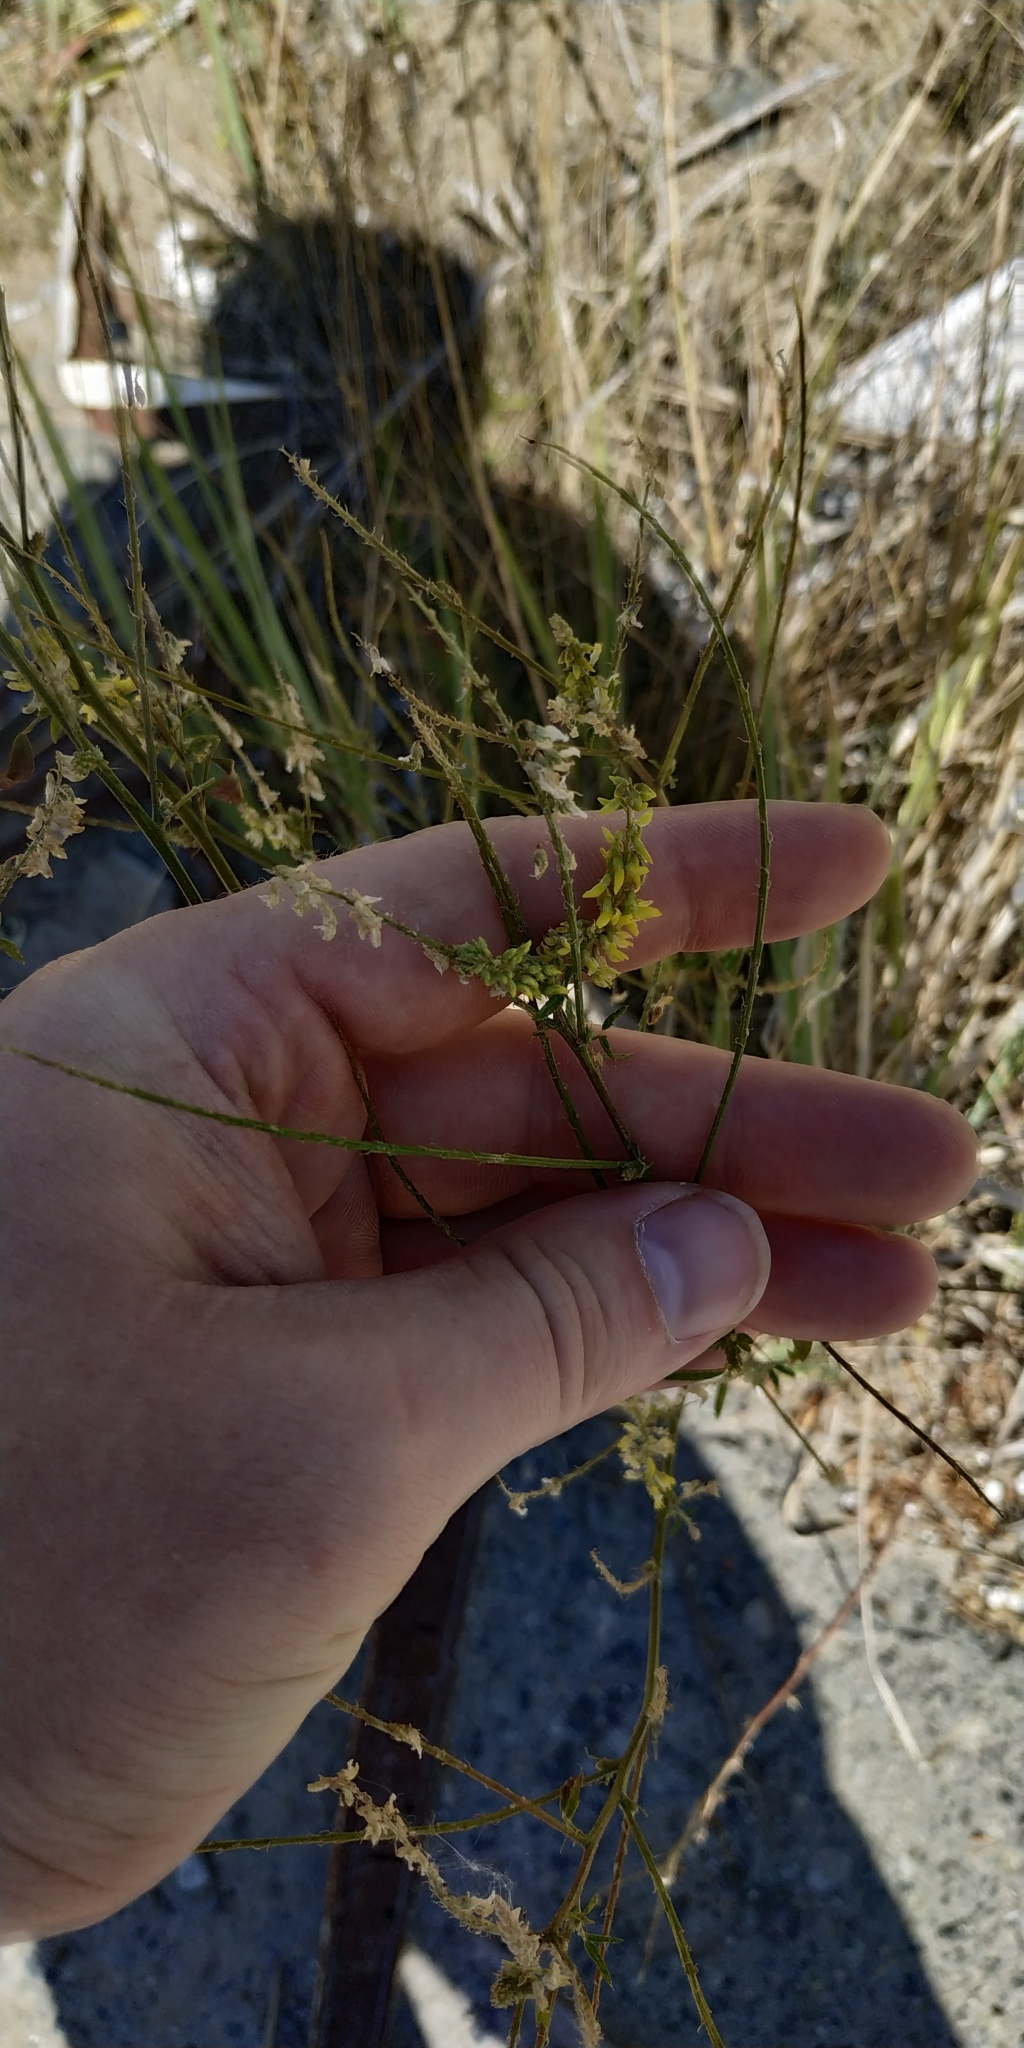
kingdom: Plantae
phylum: Tracheophyta
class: Magnoliopsida
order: Fabales
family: Fabaceae
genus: Melilotus
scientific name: Melilotus officinalis
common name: Sweetclover
